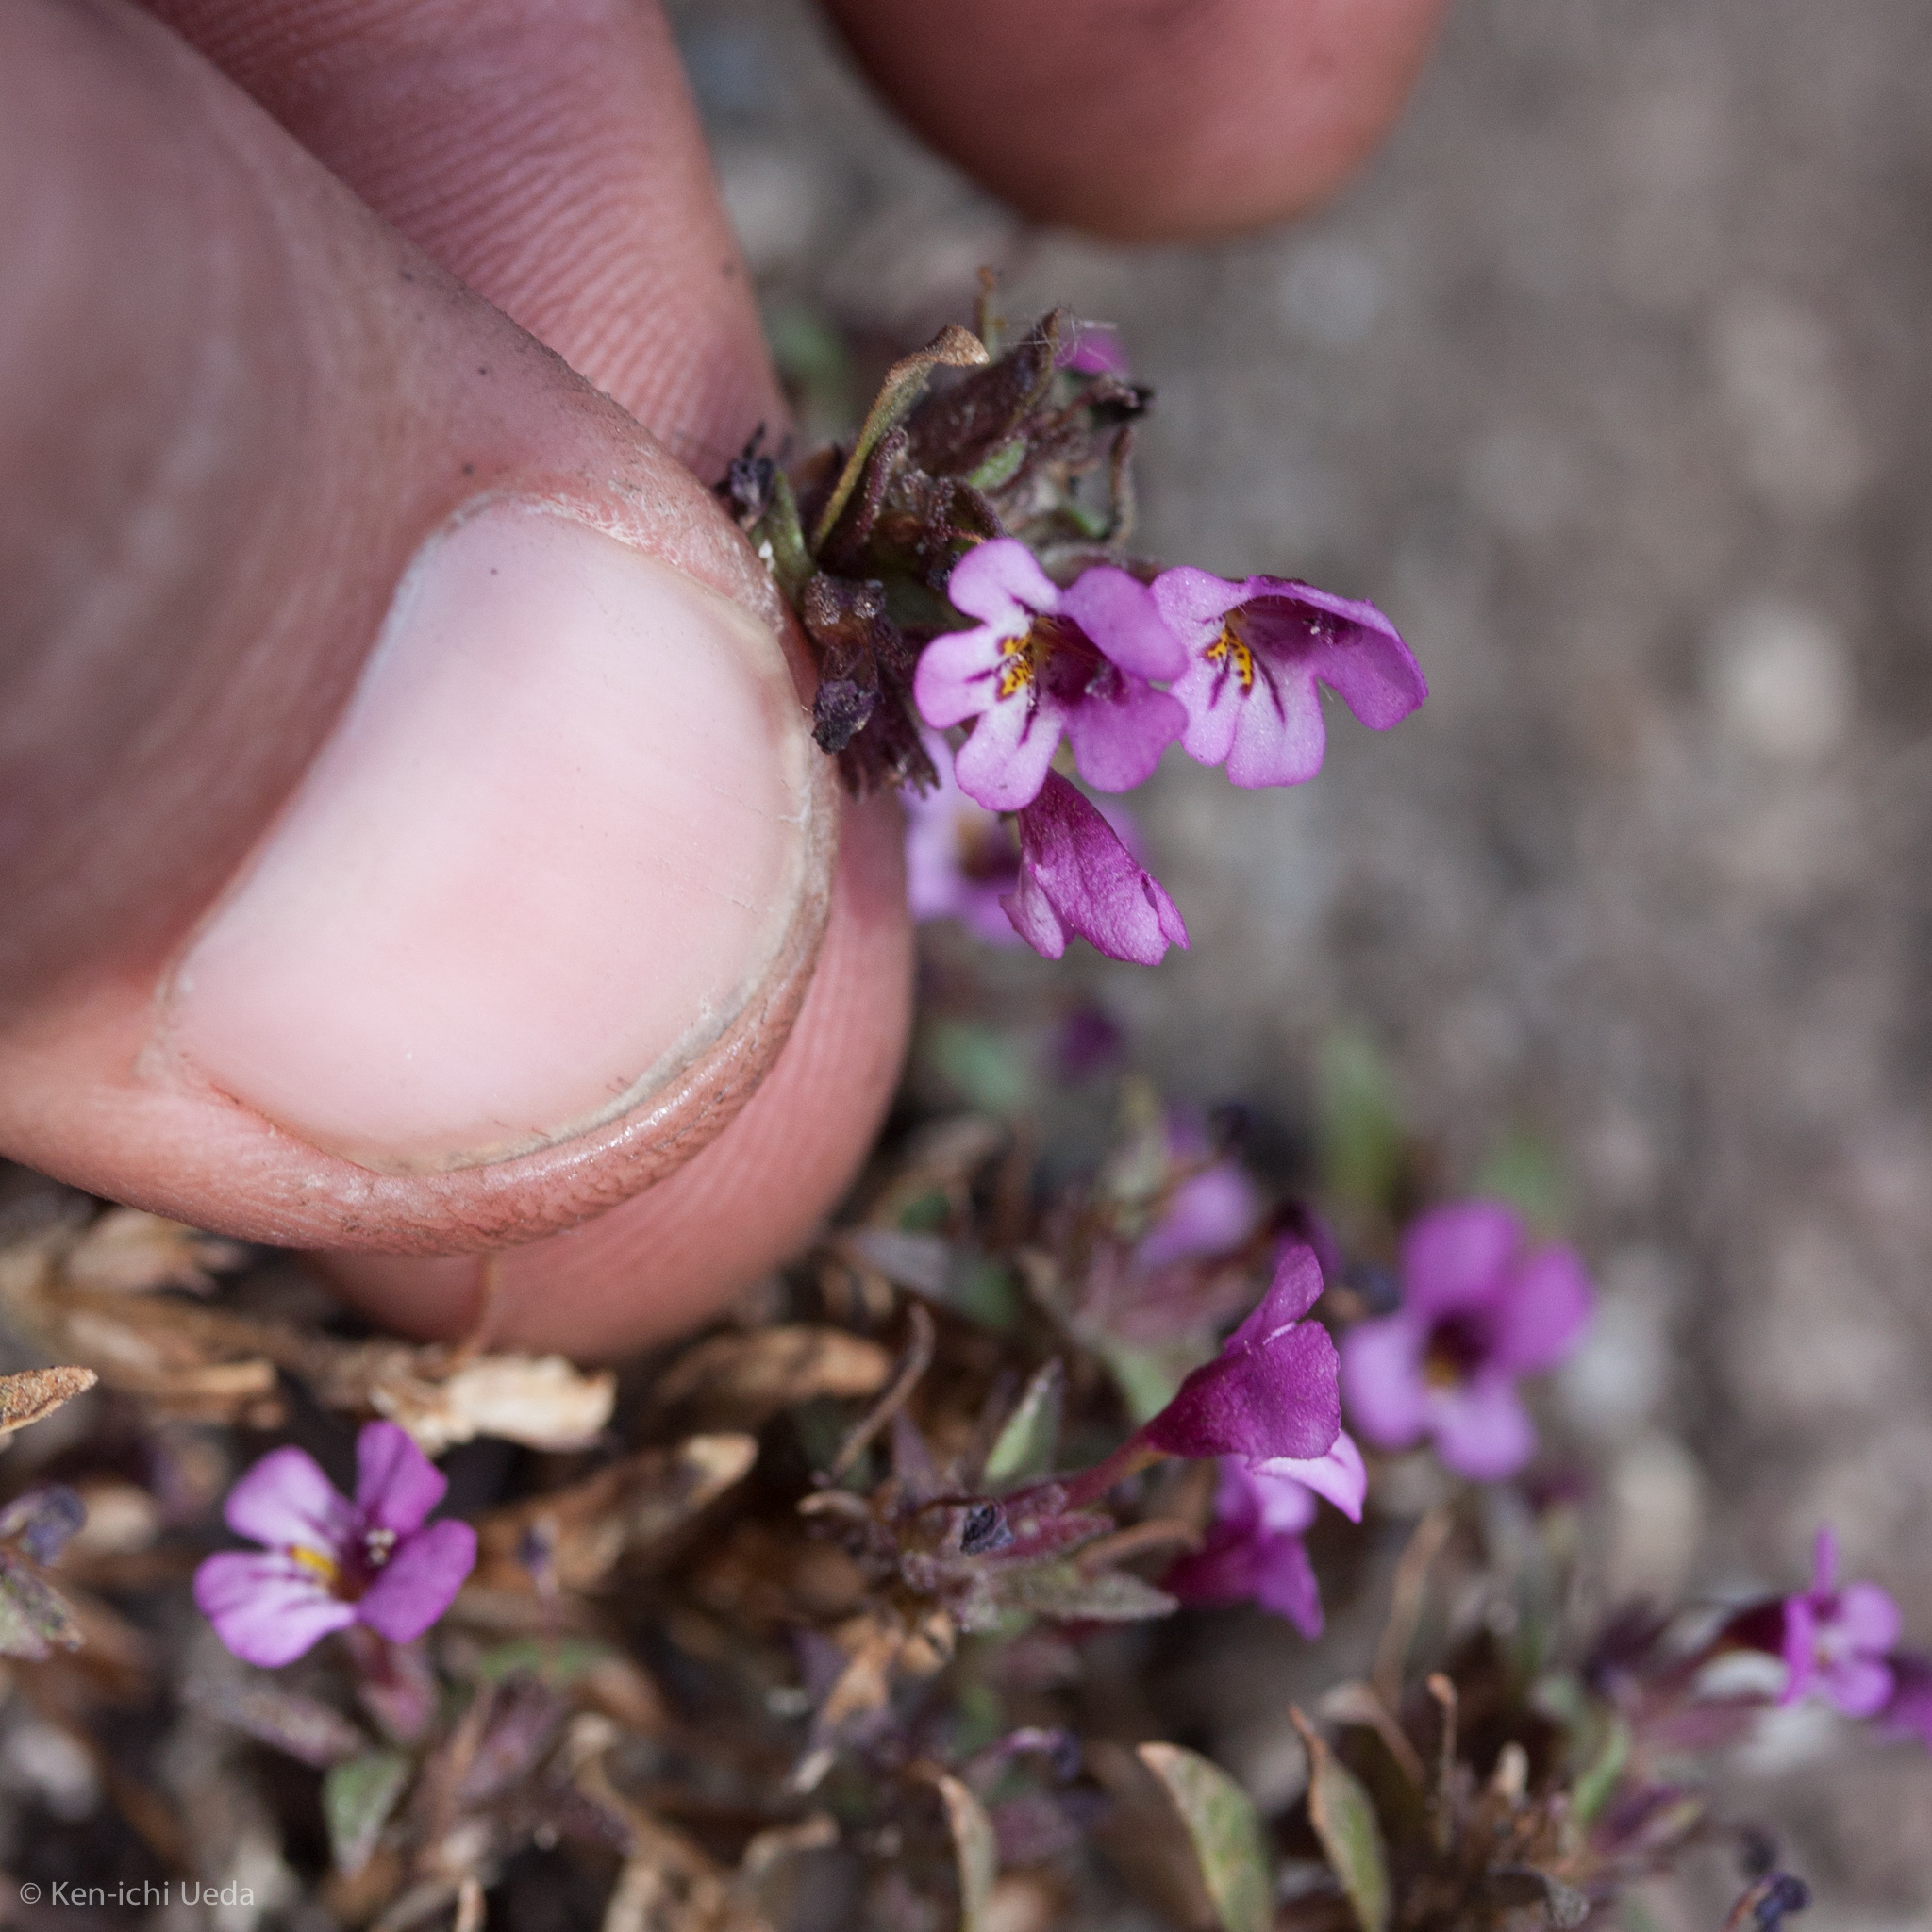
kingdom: Plantae
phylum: Tracheophyta
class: Magnoliopsida
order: Lamiales
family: Phrymaceae
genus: Diplacus
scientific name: Diplacus jepsonii
